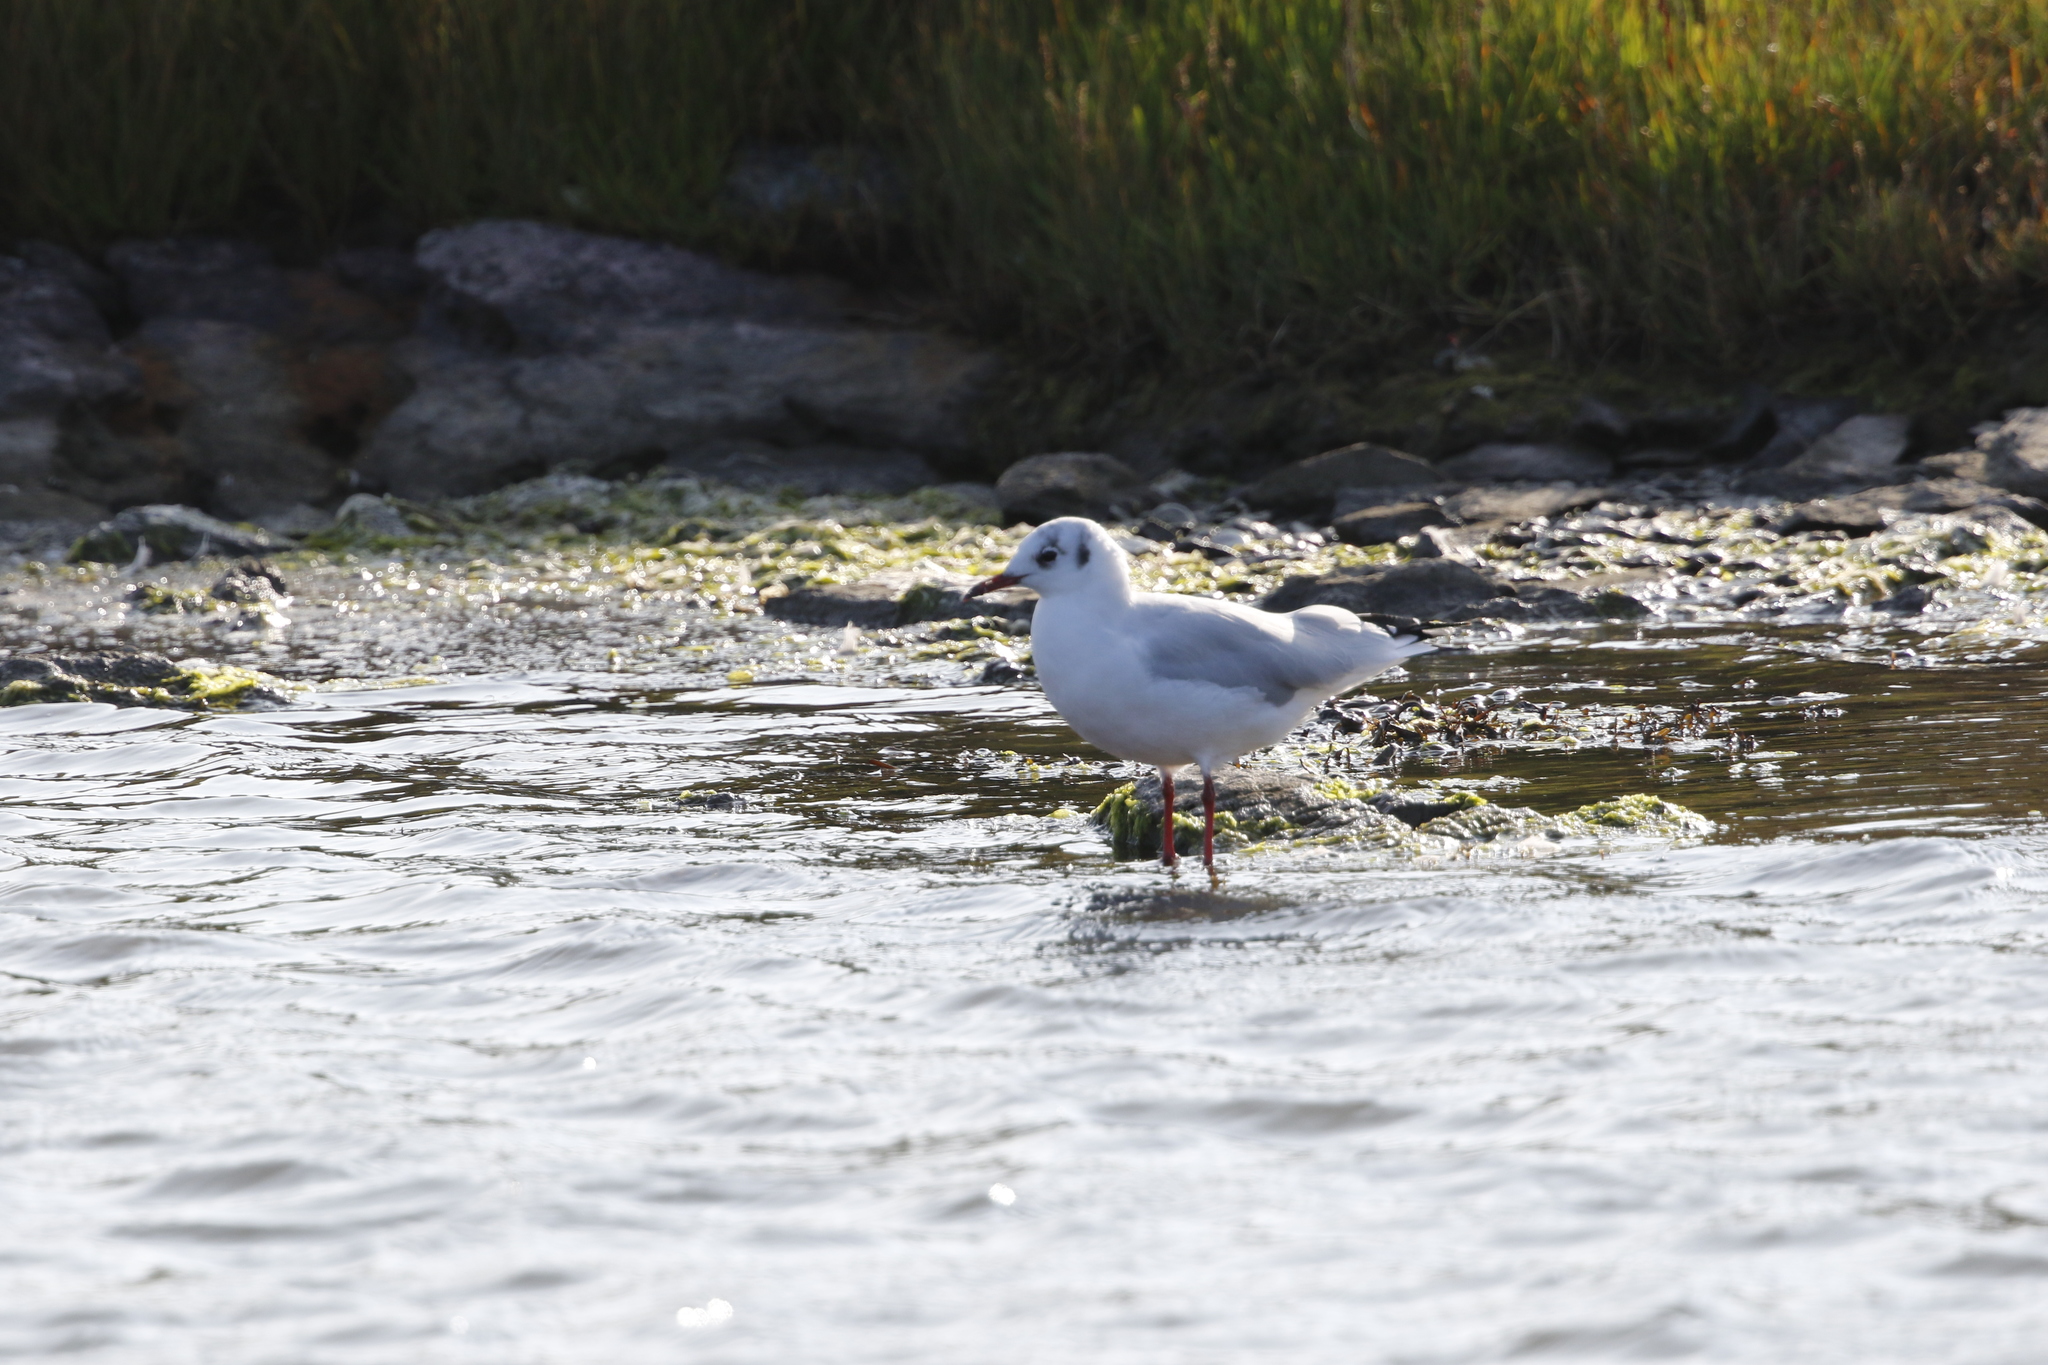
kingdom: Animalia
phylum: Chordata
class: Aves
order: Charadriiformes
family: Laridae
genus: Chroicocephalus
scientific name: Chroicocephalus ridibundus
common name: Black-headed gull
